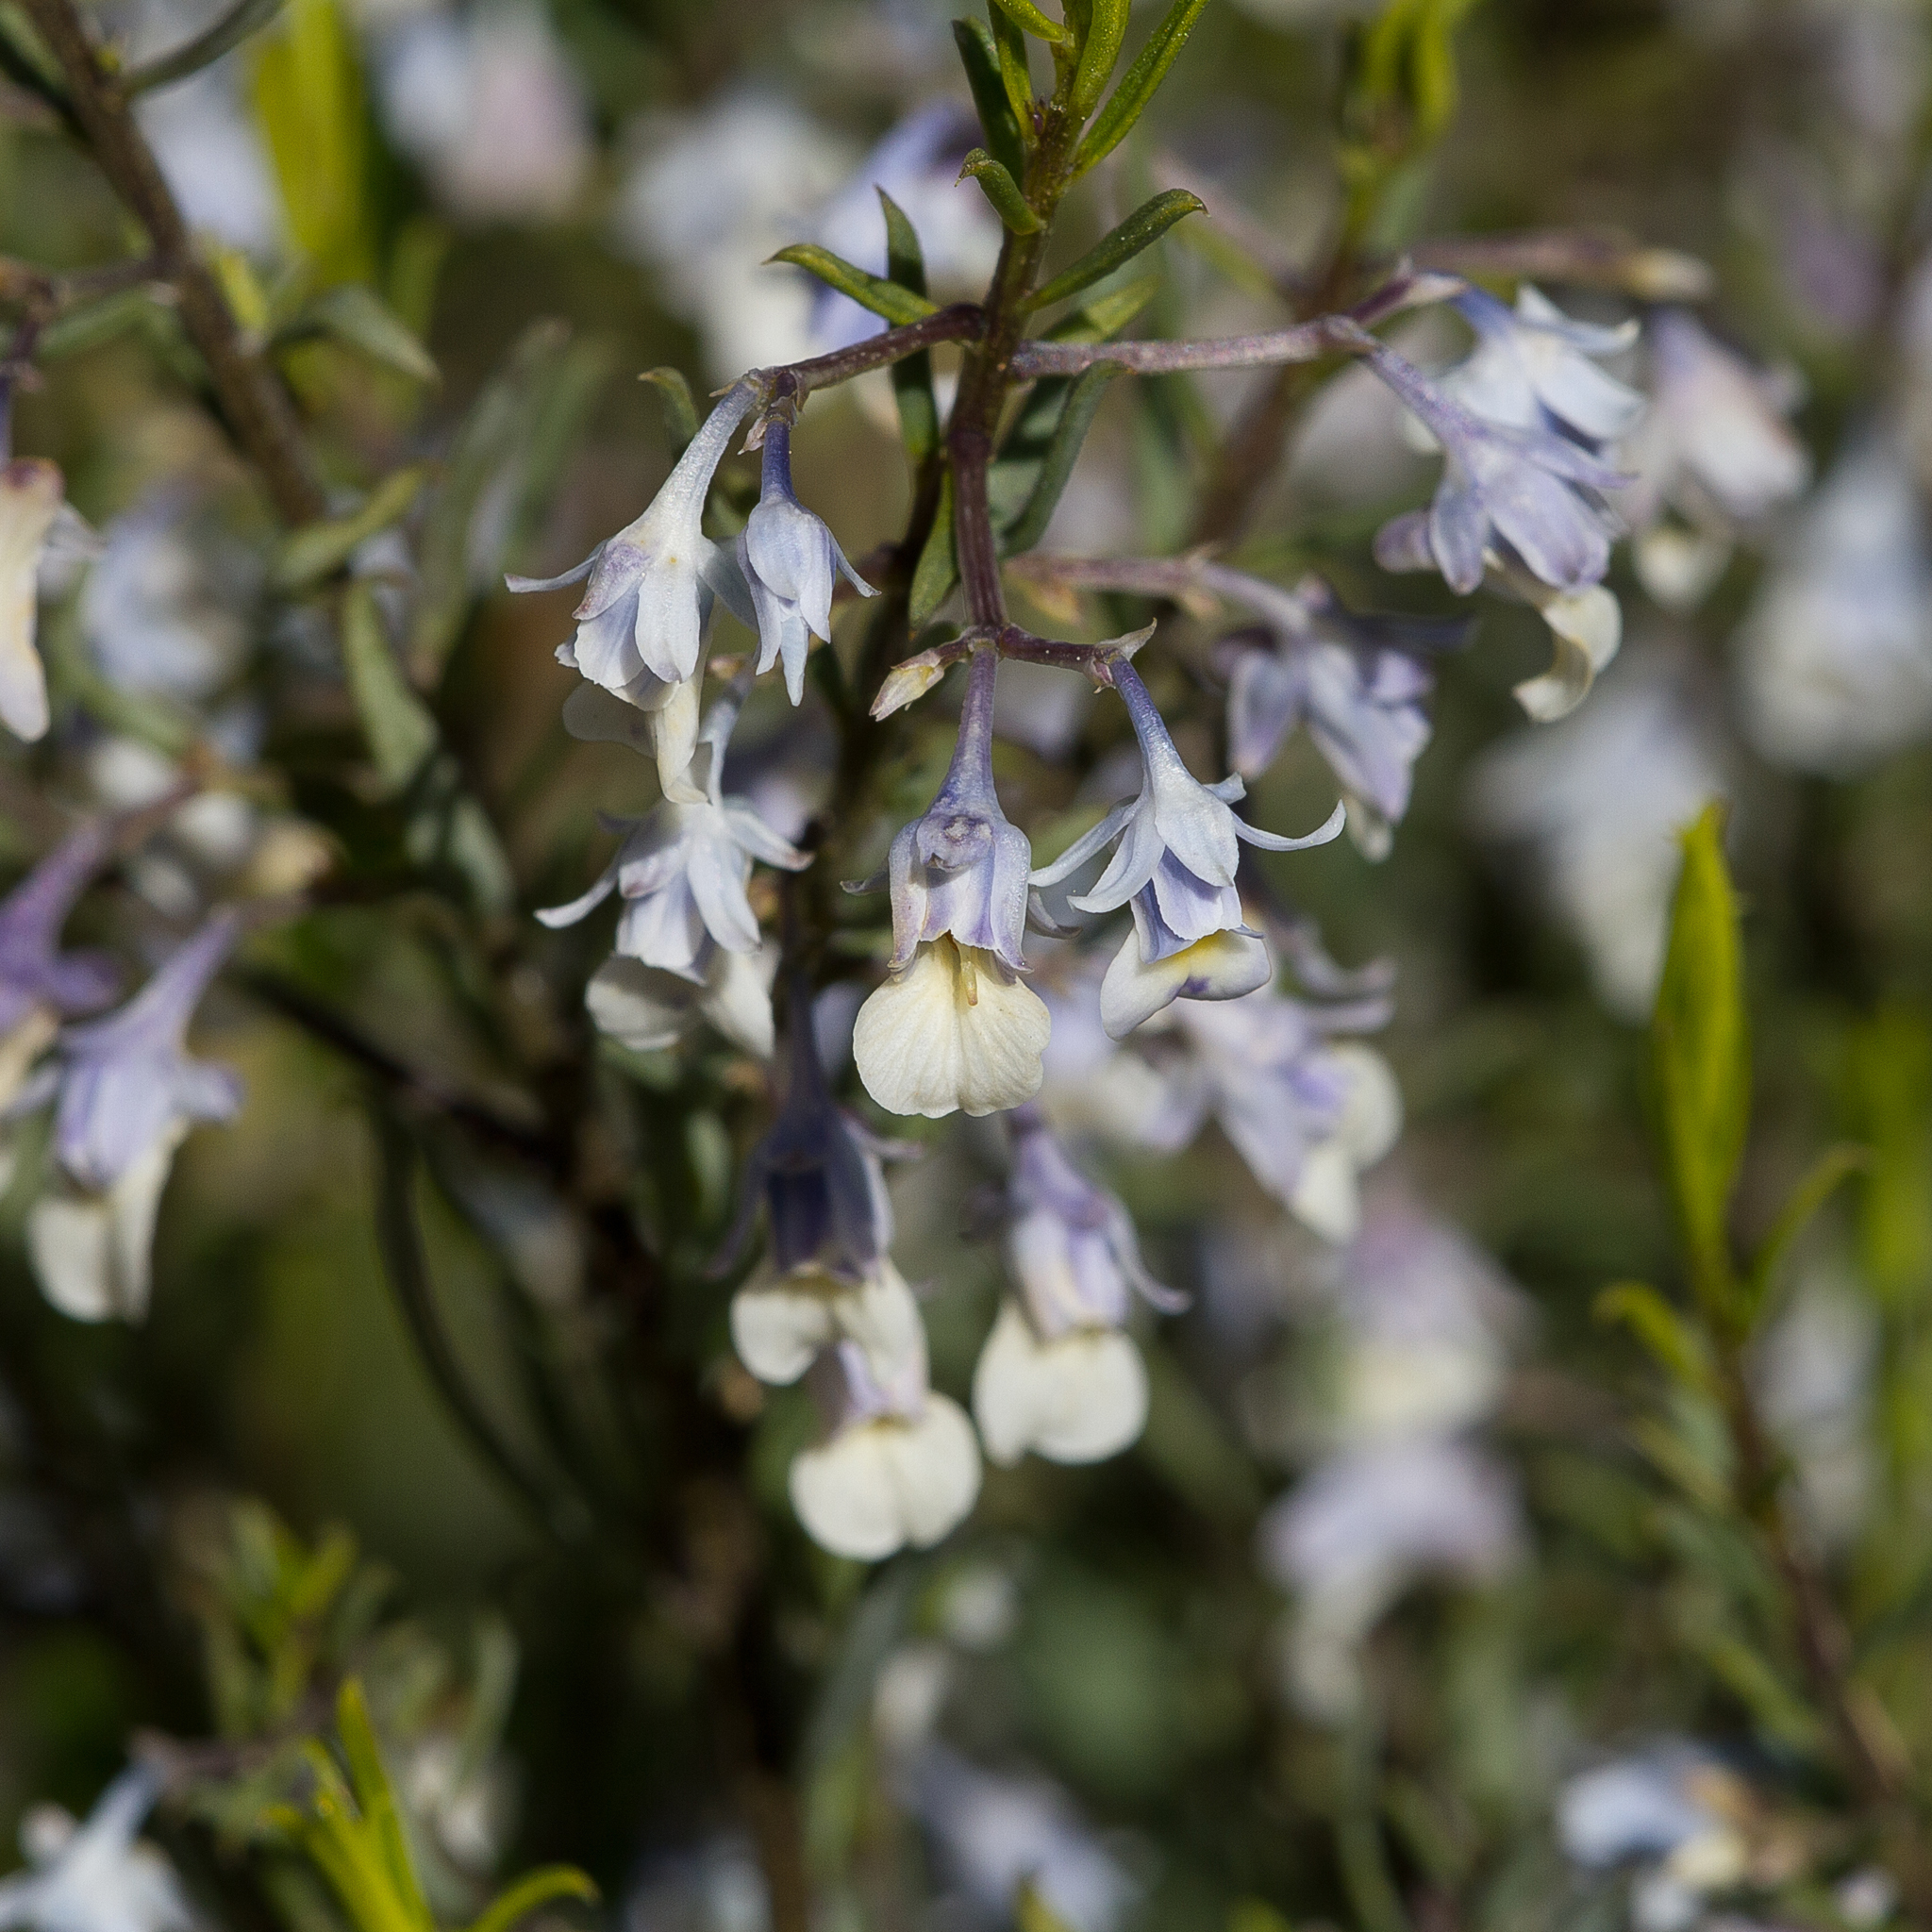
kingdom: Plantae
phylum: Tracheophyta
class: Magnoliopsida
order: Malpighiales
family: Violaceae
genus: Pigea
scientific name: Pigea floribunda
